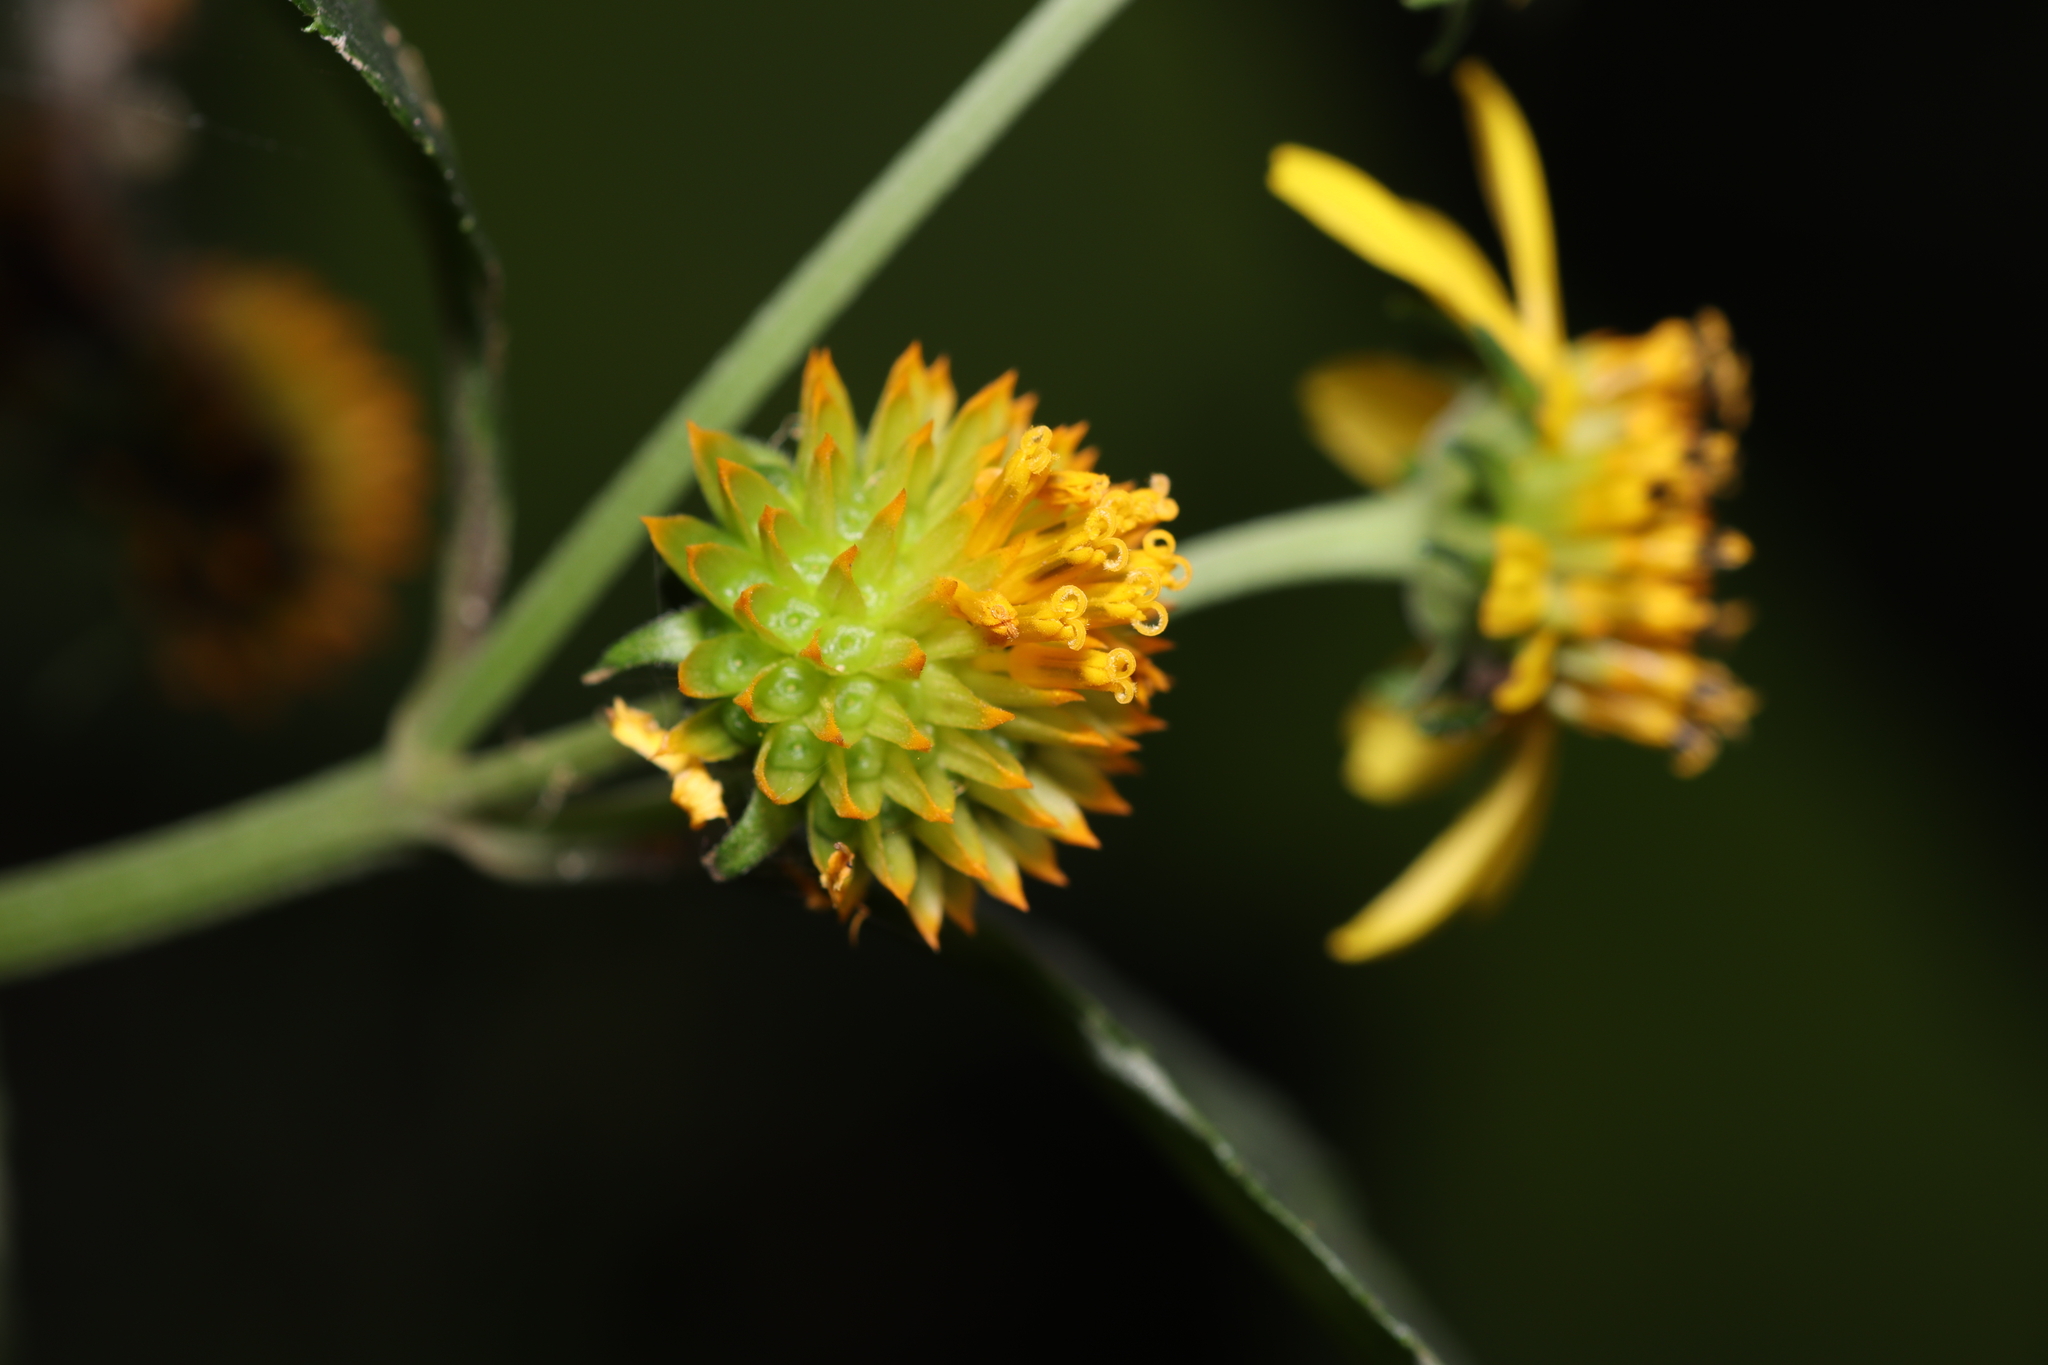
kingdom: Plantae
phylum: Tracheophyta
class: Magnoliopsida
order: Asterales
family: Asteraceae
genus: Tilesia
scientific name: Tilesia baccata
